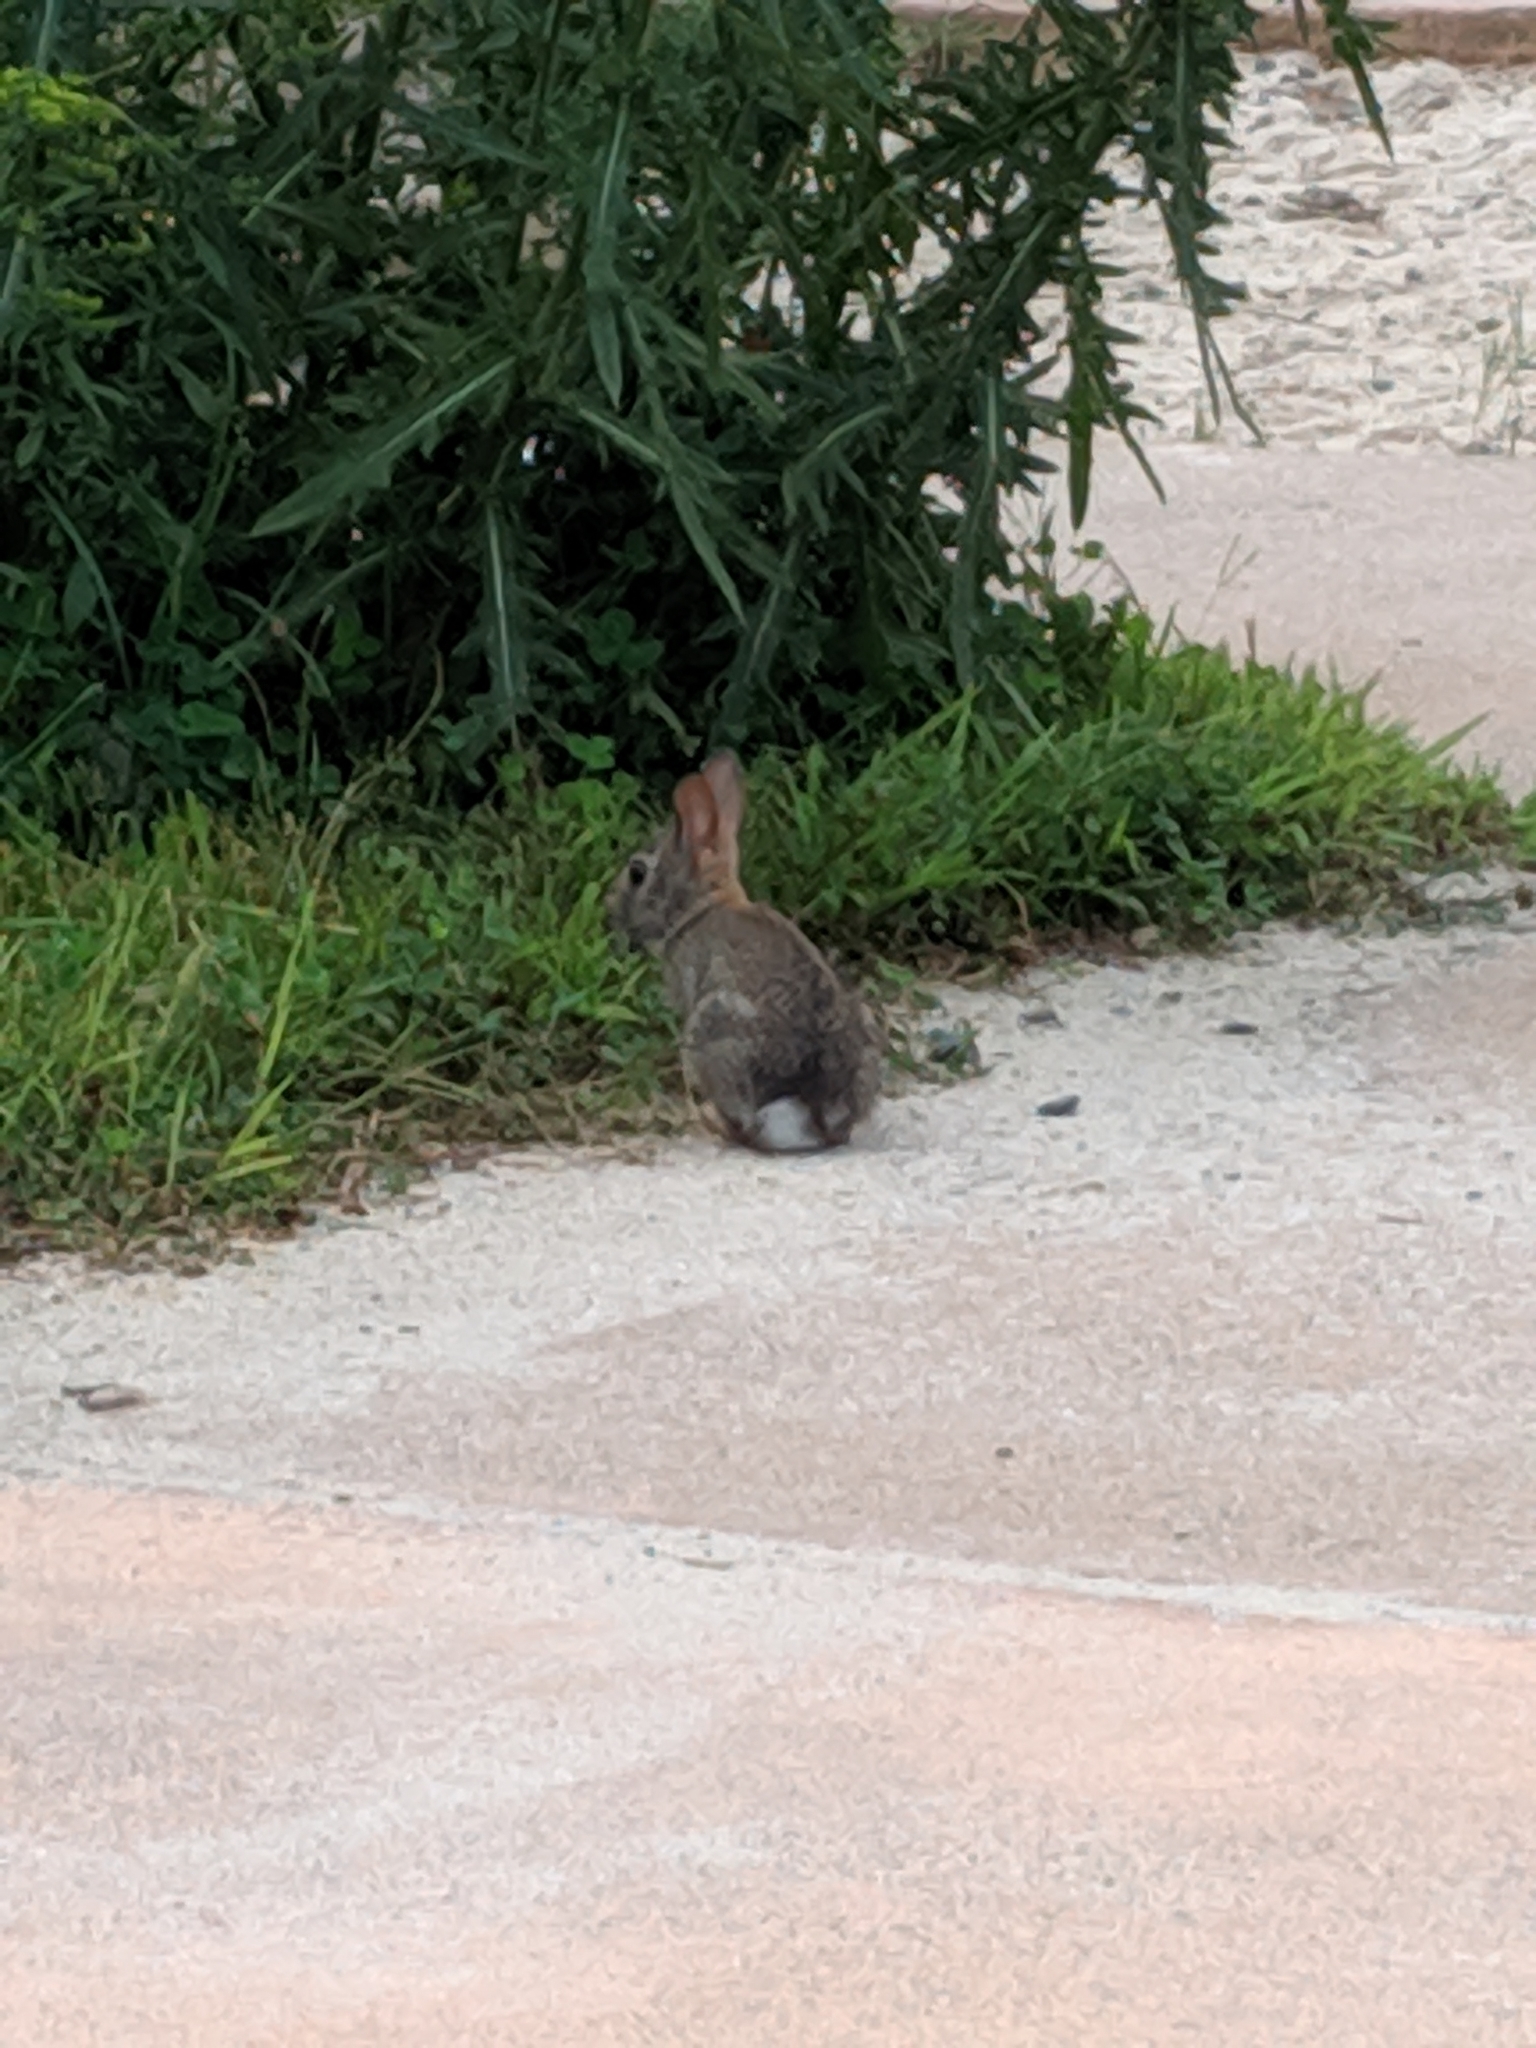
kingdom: Animalia
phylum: Chordata
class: Mammalia
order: Lagomorpha
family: Leporidae
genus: Sylvilagus
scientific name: Sylvilagus floridanus
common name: Eastern cottontail
